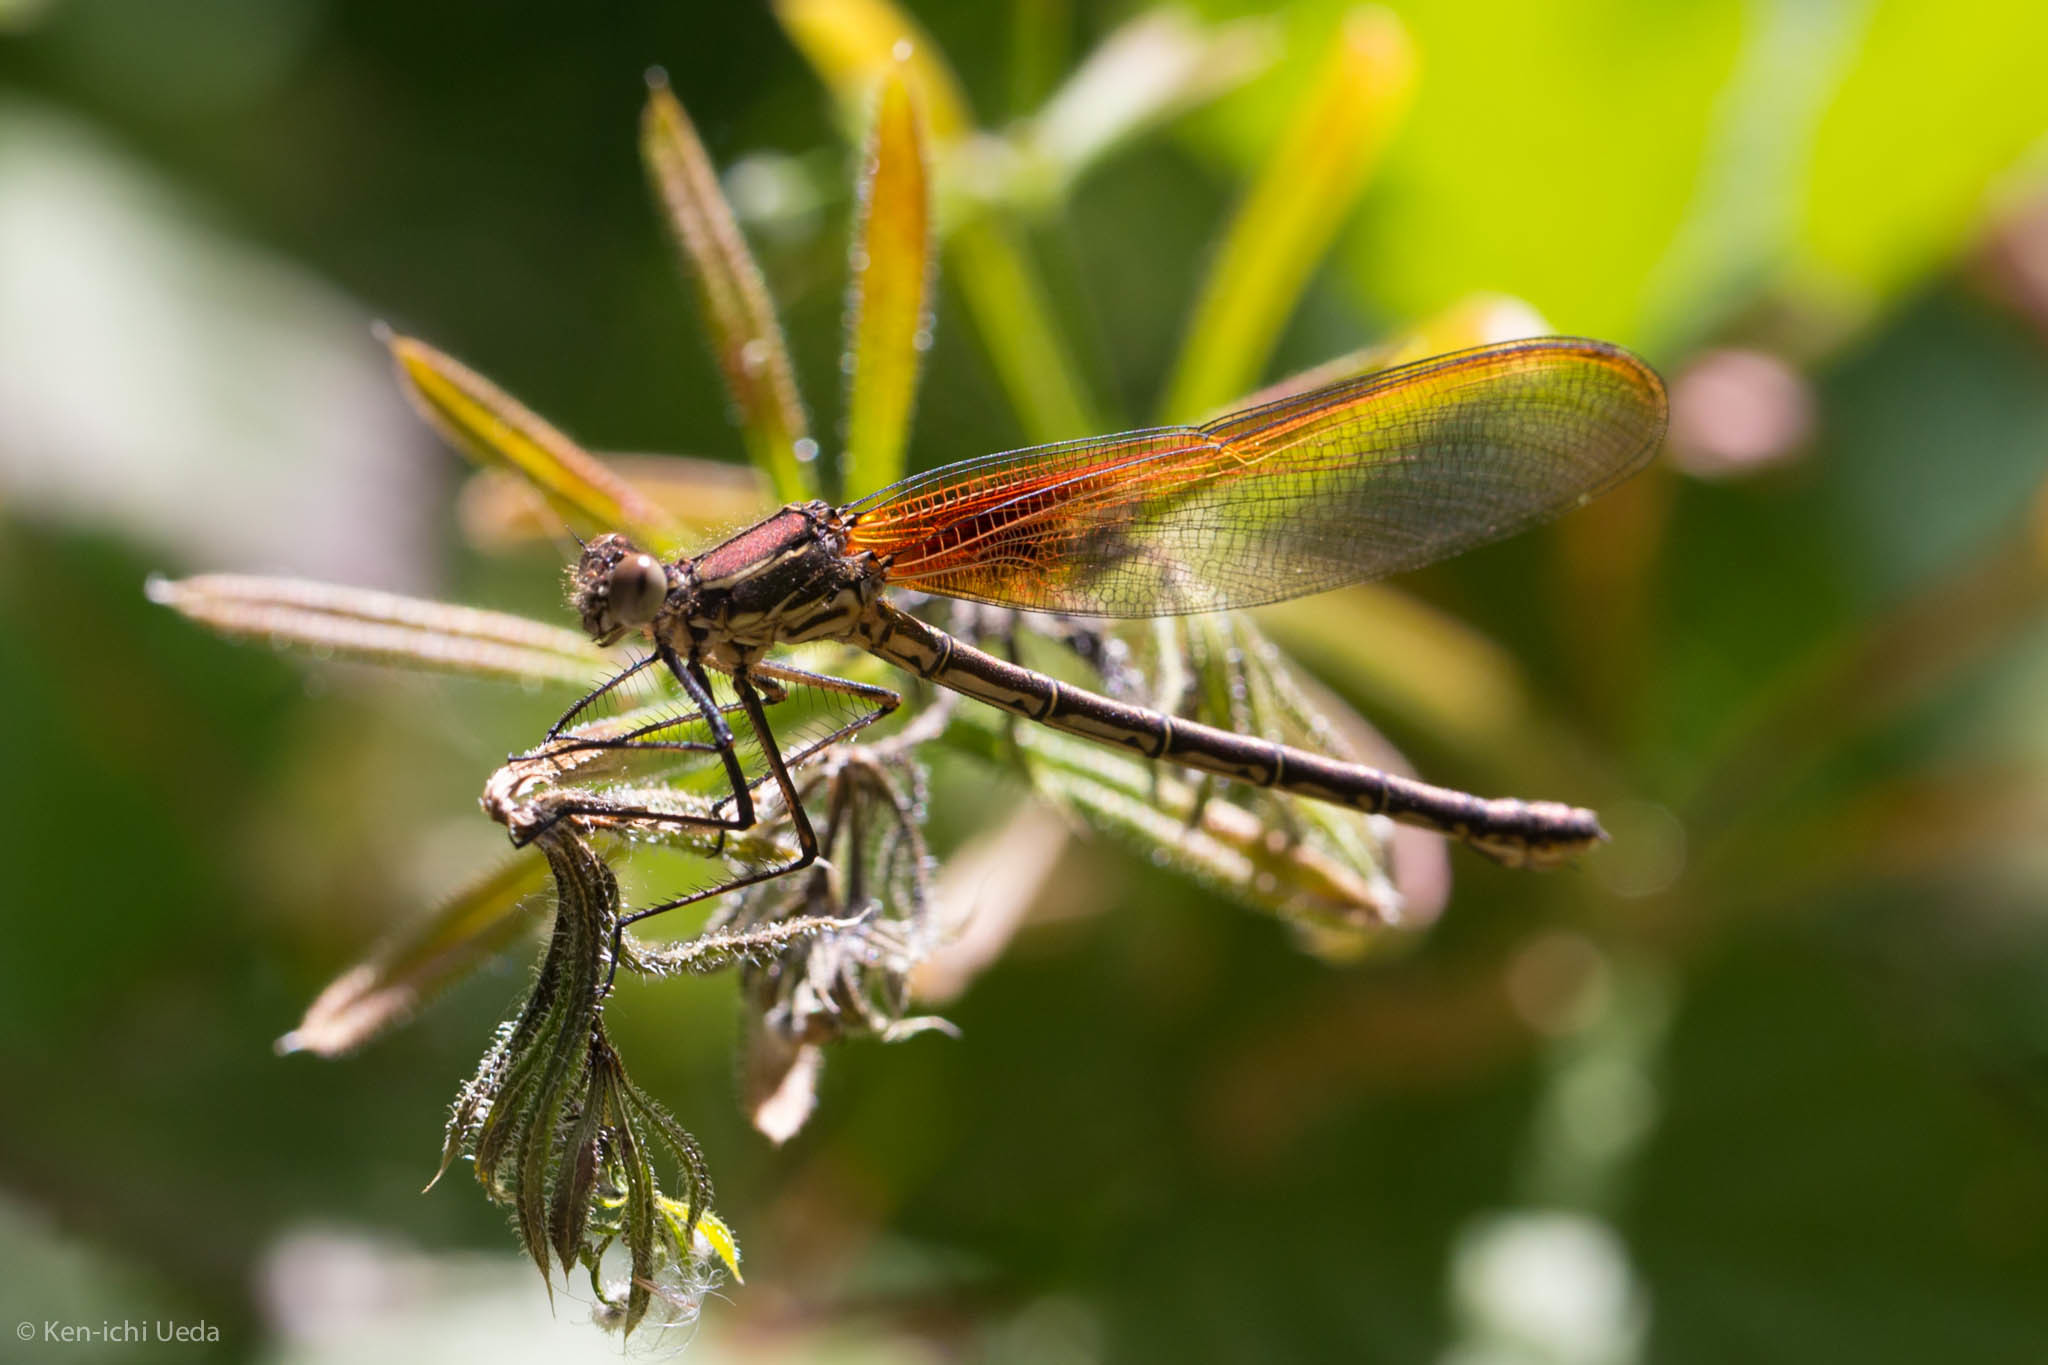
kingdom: Animalia
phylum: Arthropoda
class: Insecta
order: Odonata
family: Calopterygidae
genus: Hetaerina
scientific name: Hetaerina americana
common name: American rubyspot
